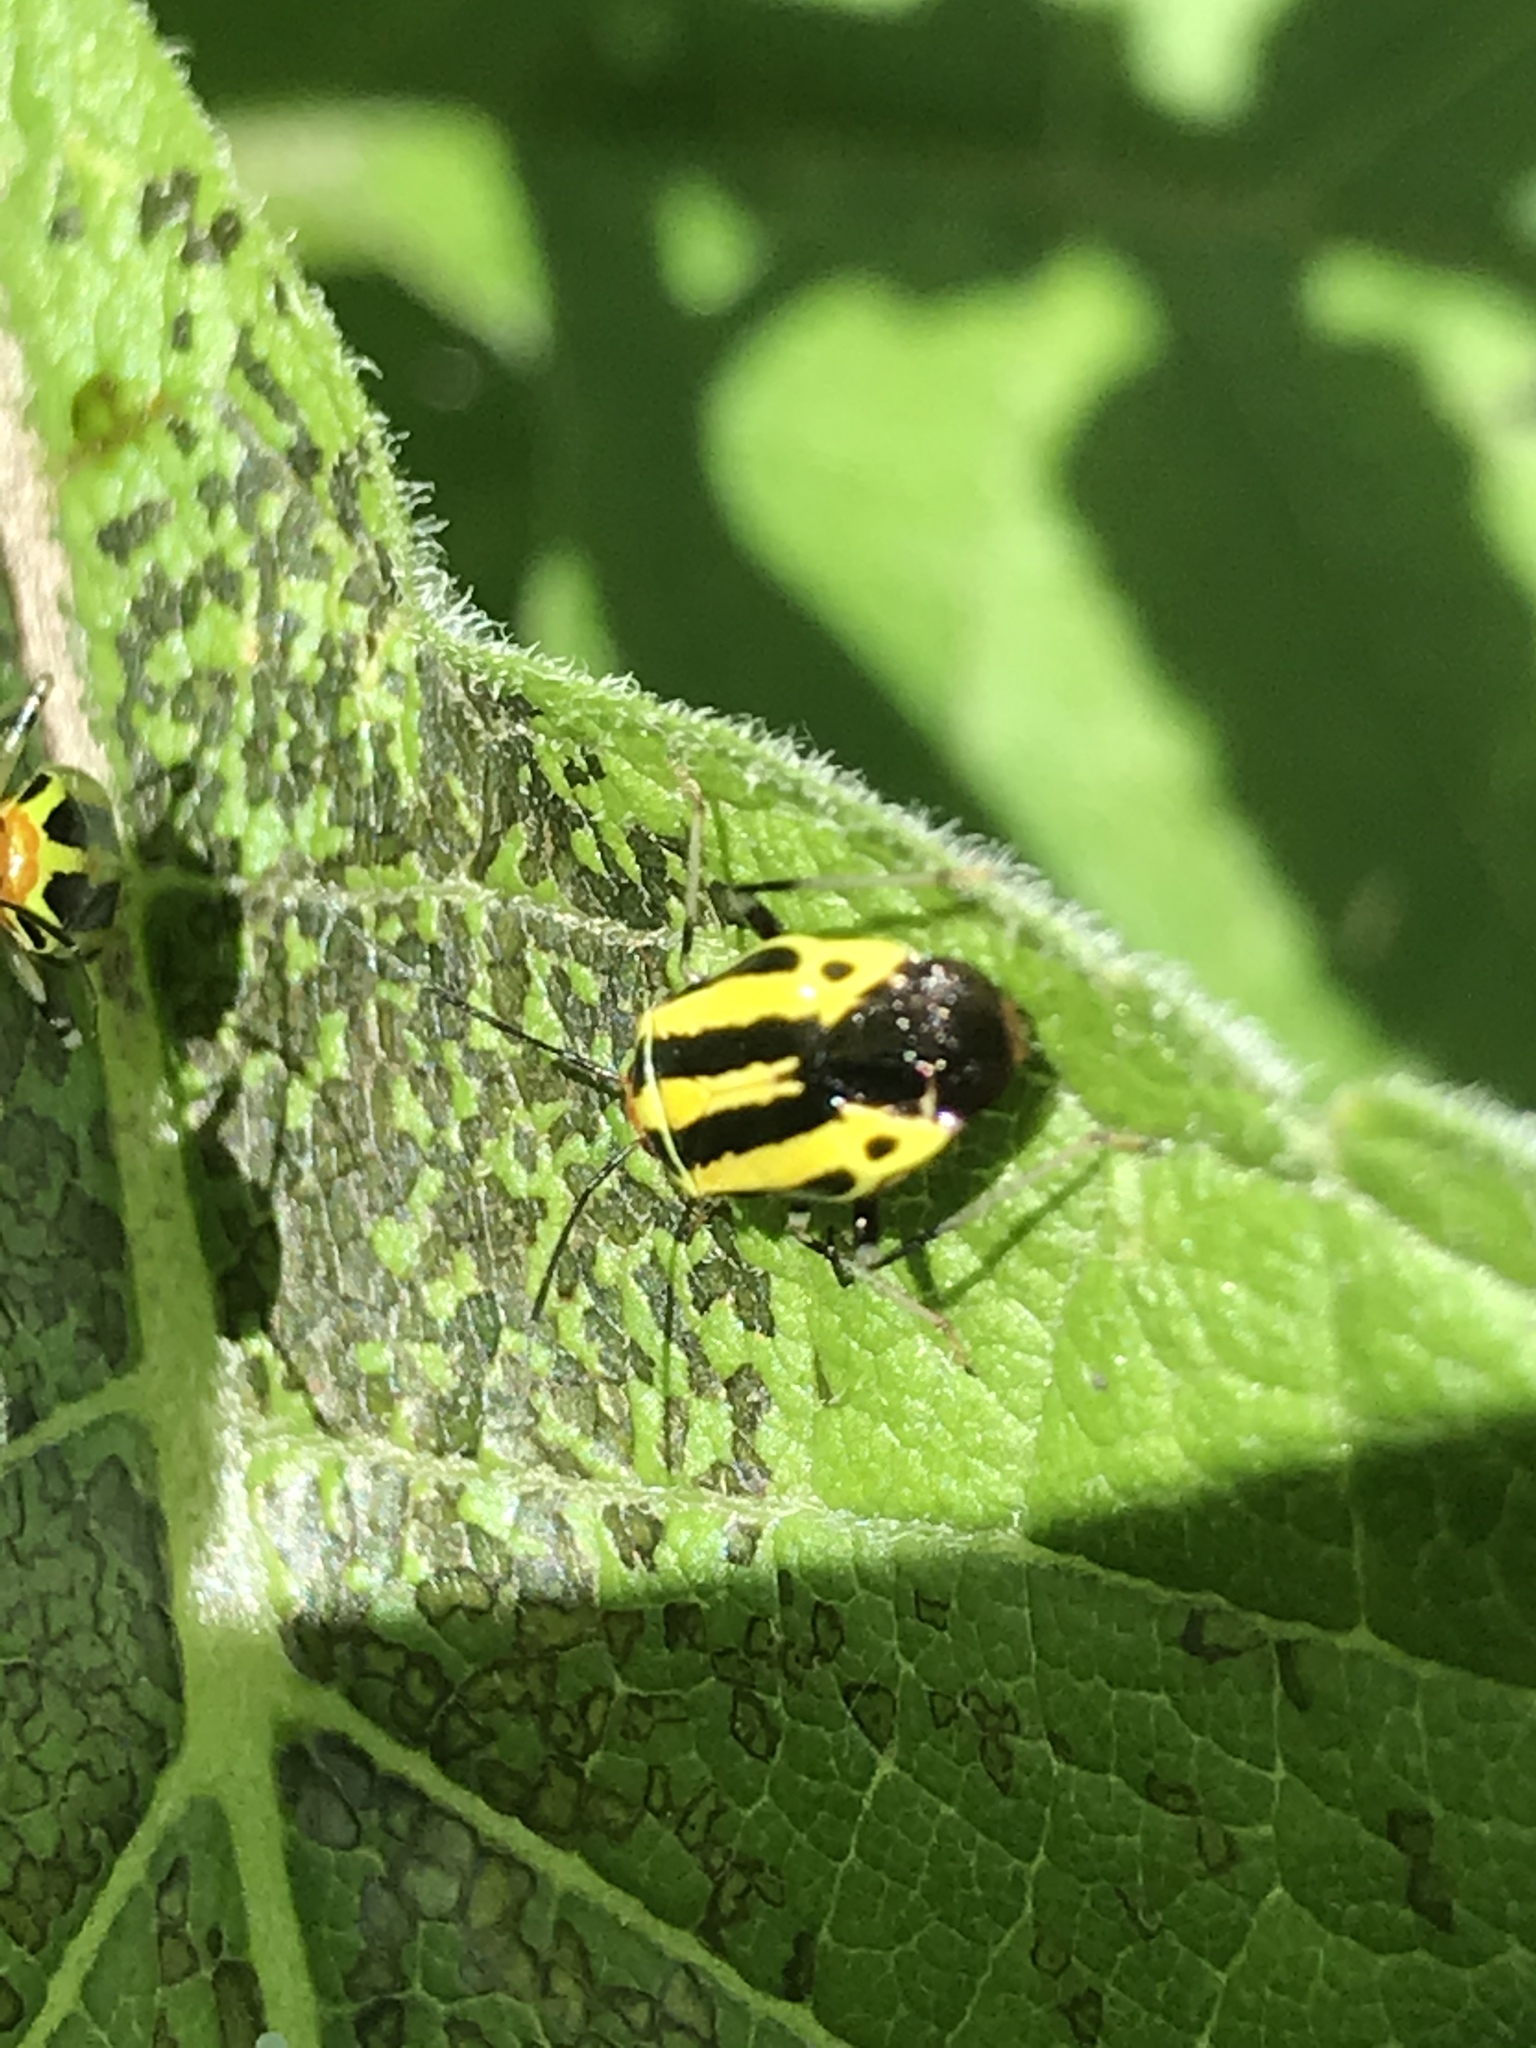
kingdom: Animalia
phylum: Arthropoda
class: Insecta
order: Hemiptera
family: Miridae
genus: Poecilocapsus
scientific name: Poecilocapsus lineatus
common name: Four-lined plant bug
